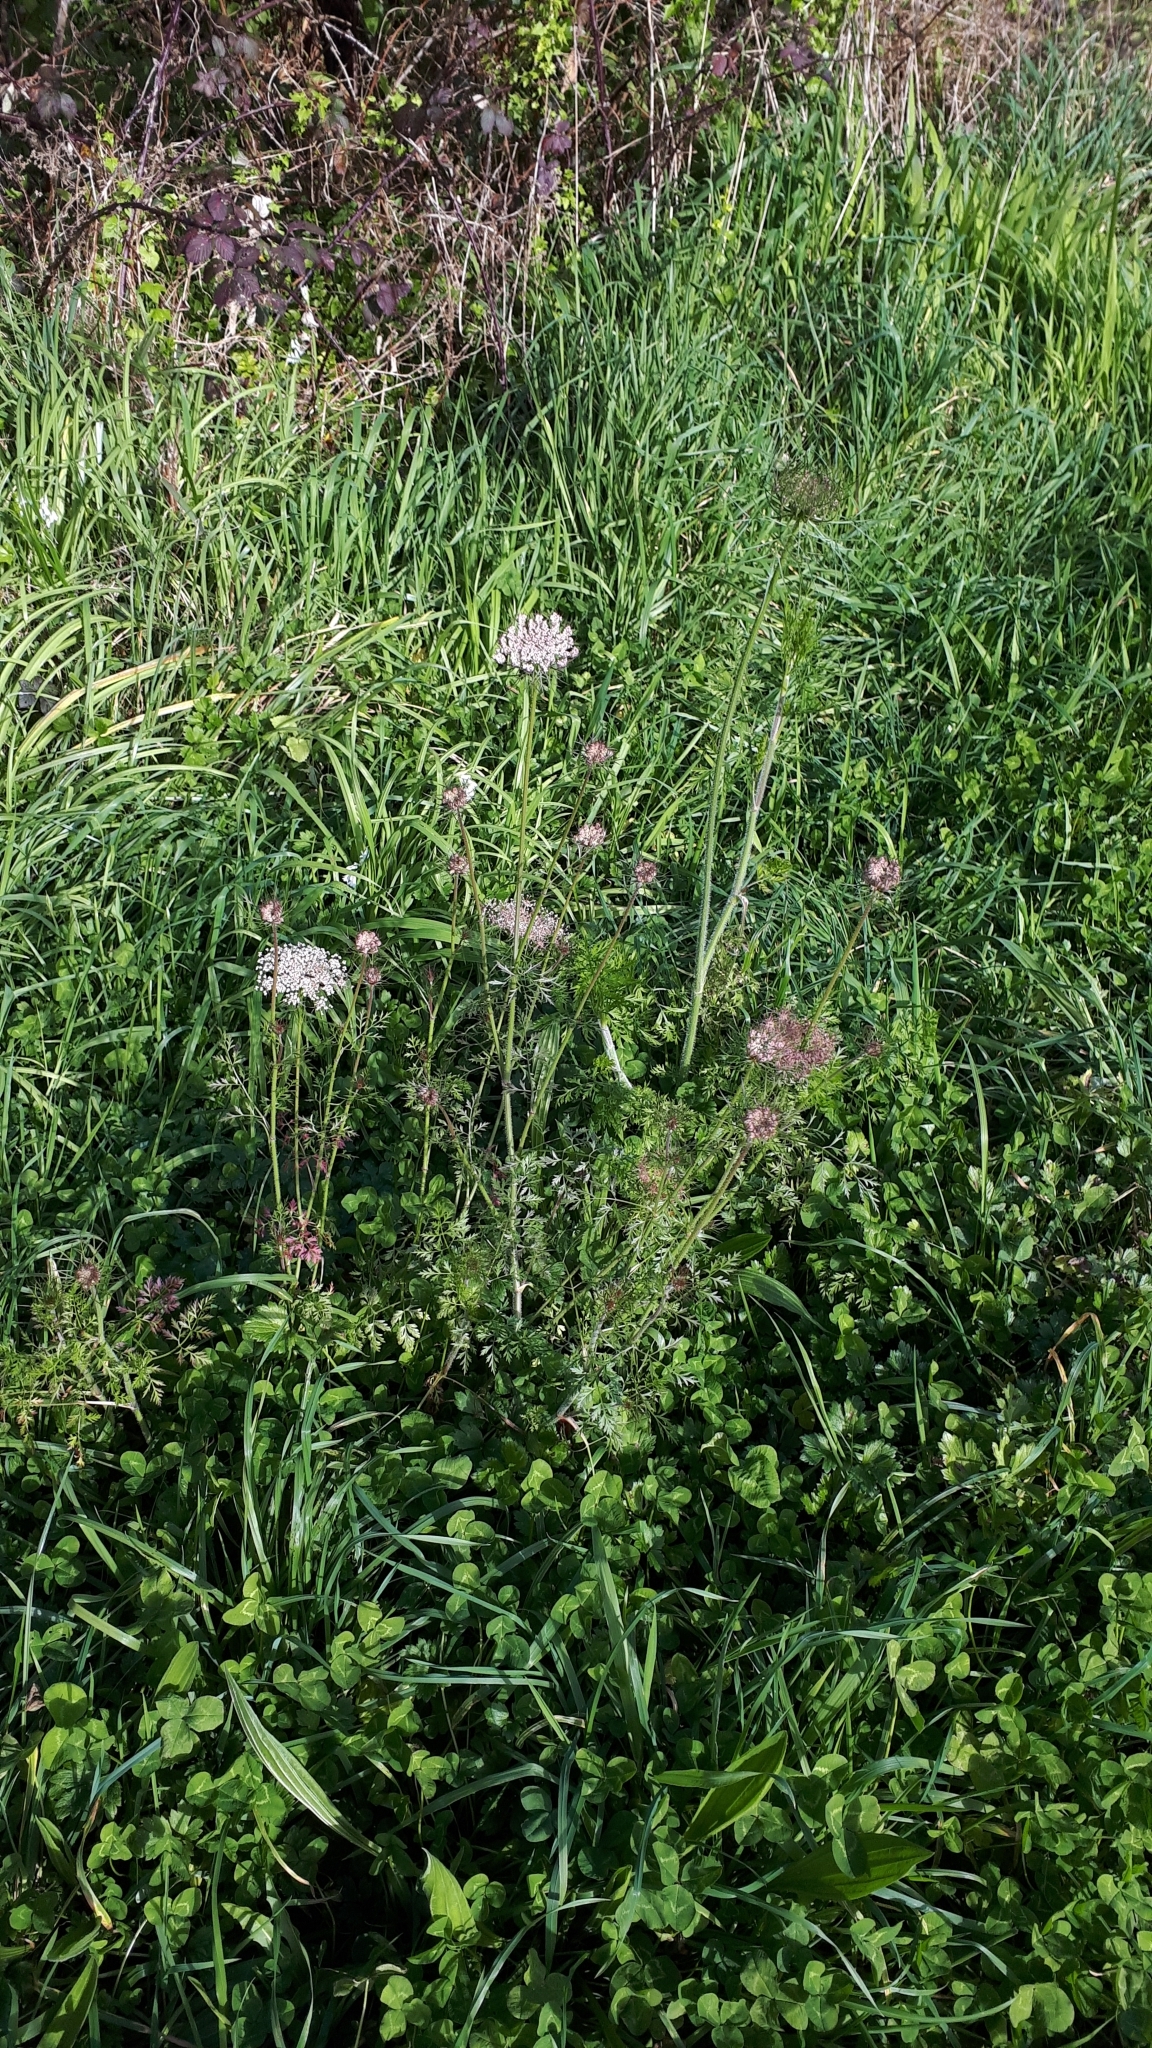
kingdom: Plantae
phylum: Tracheophyta
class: Magnoliopsida
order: Apiales
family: Apiaceae
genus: Daucus
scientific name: Daucus carota
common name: Wild carrot
